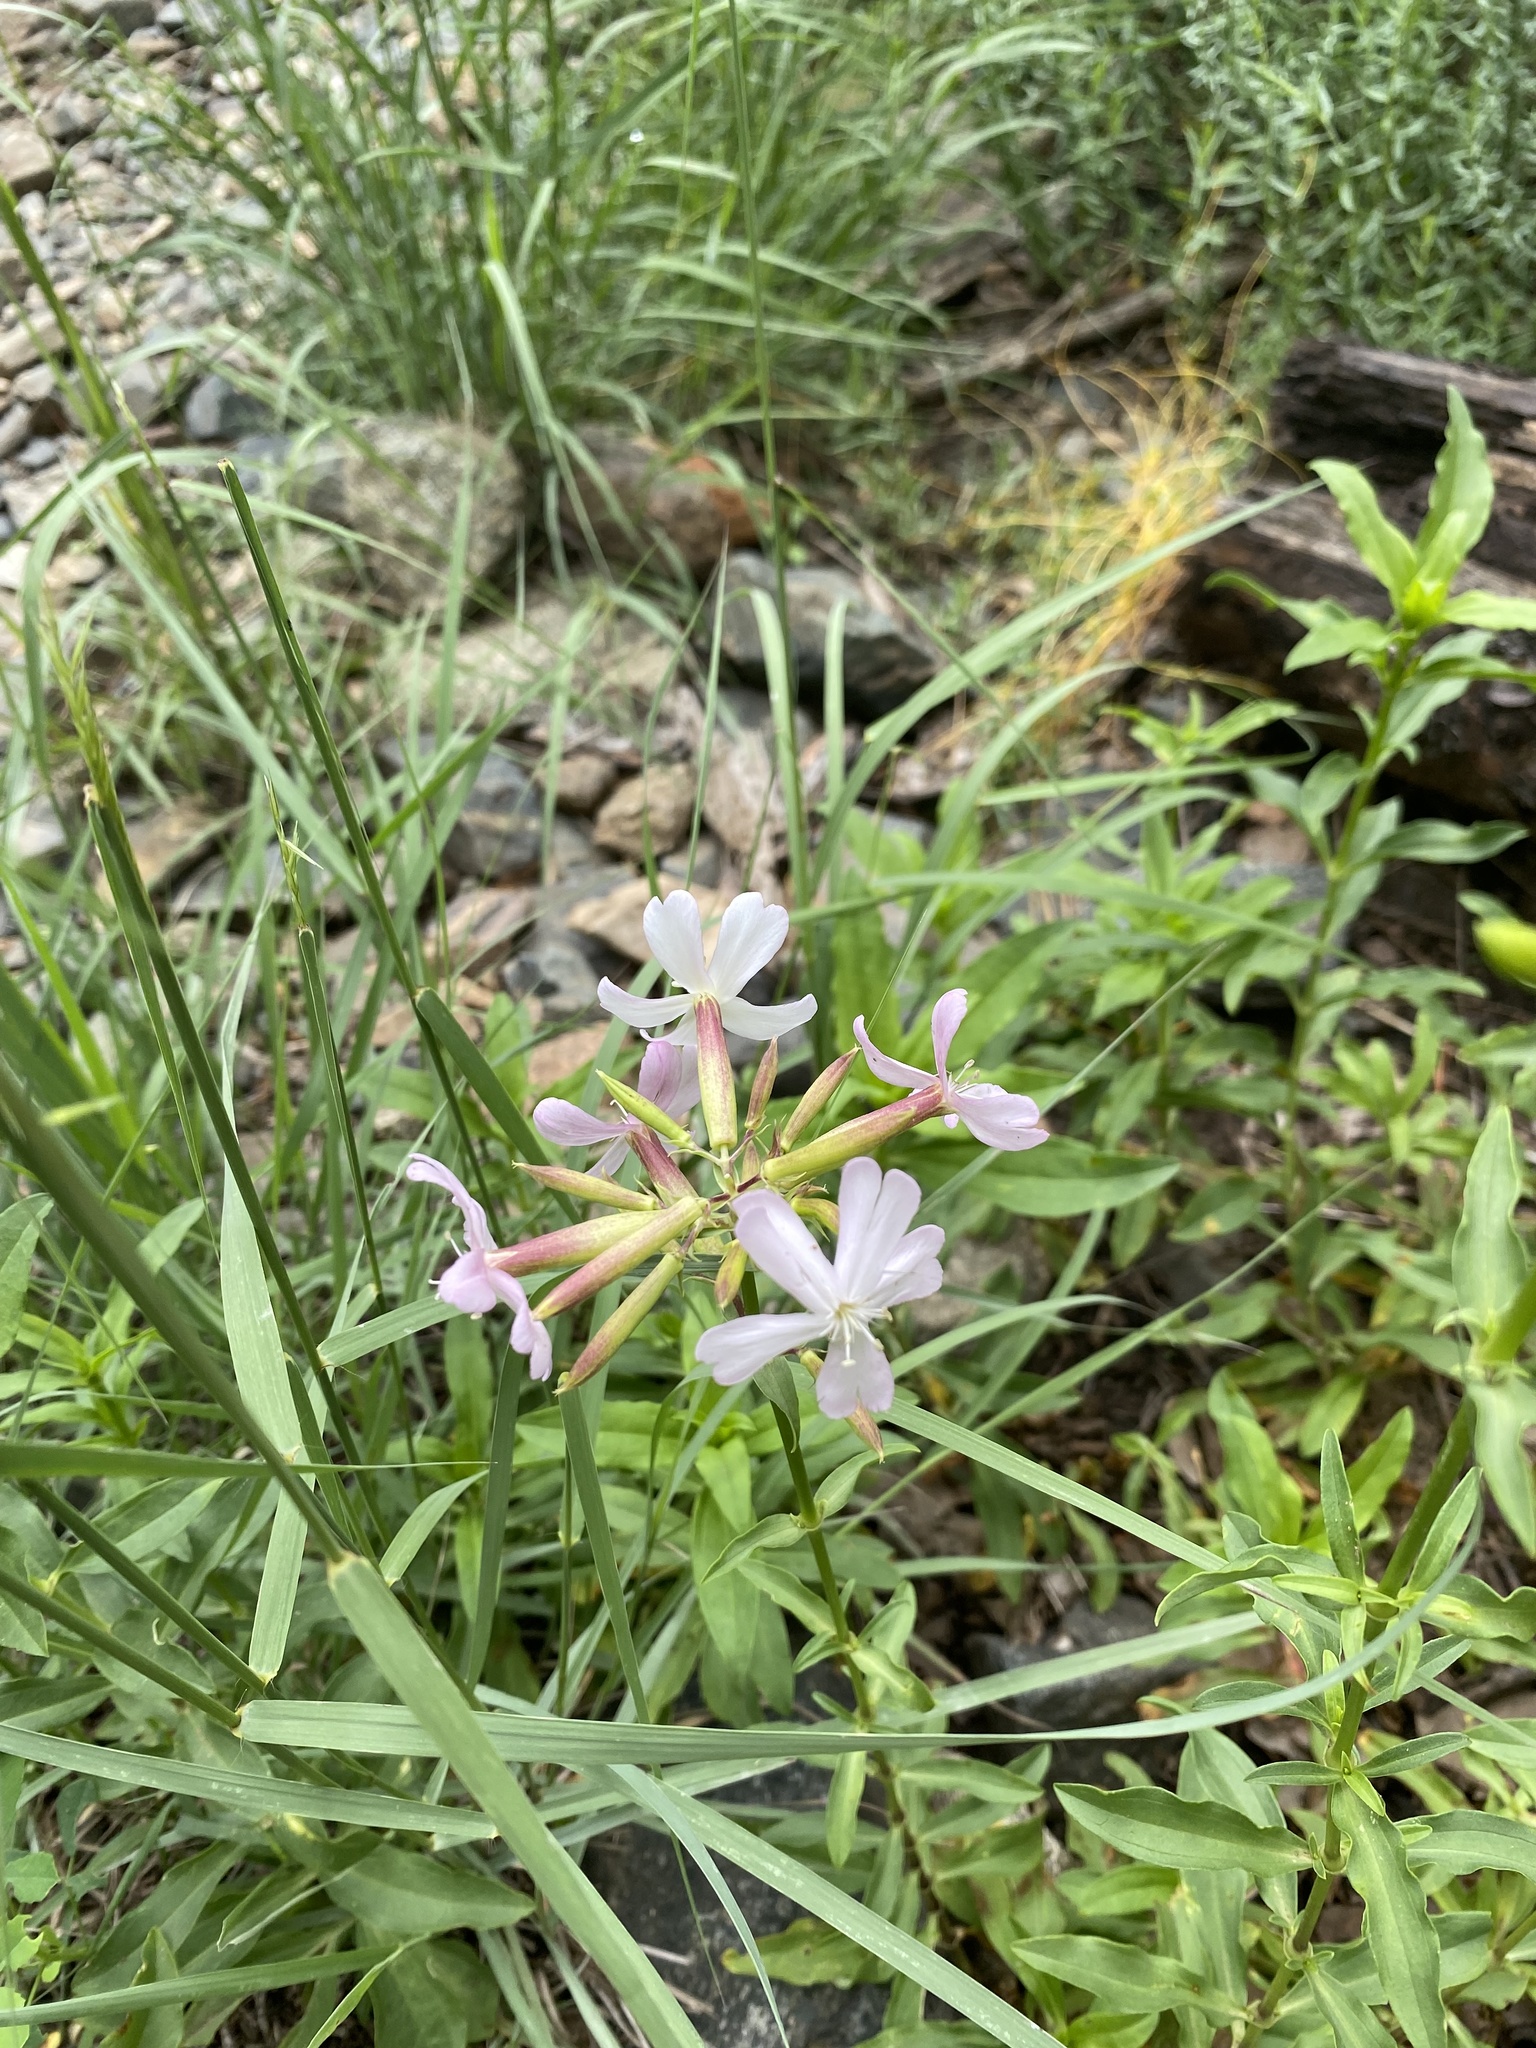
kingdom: Plantae
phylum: Tracheophyta
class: Magnoliopsida
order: Caryophyllales
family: Caryophyllaceae
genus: Saponaria
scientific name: Saponaria officinalis
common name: Soapwort
